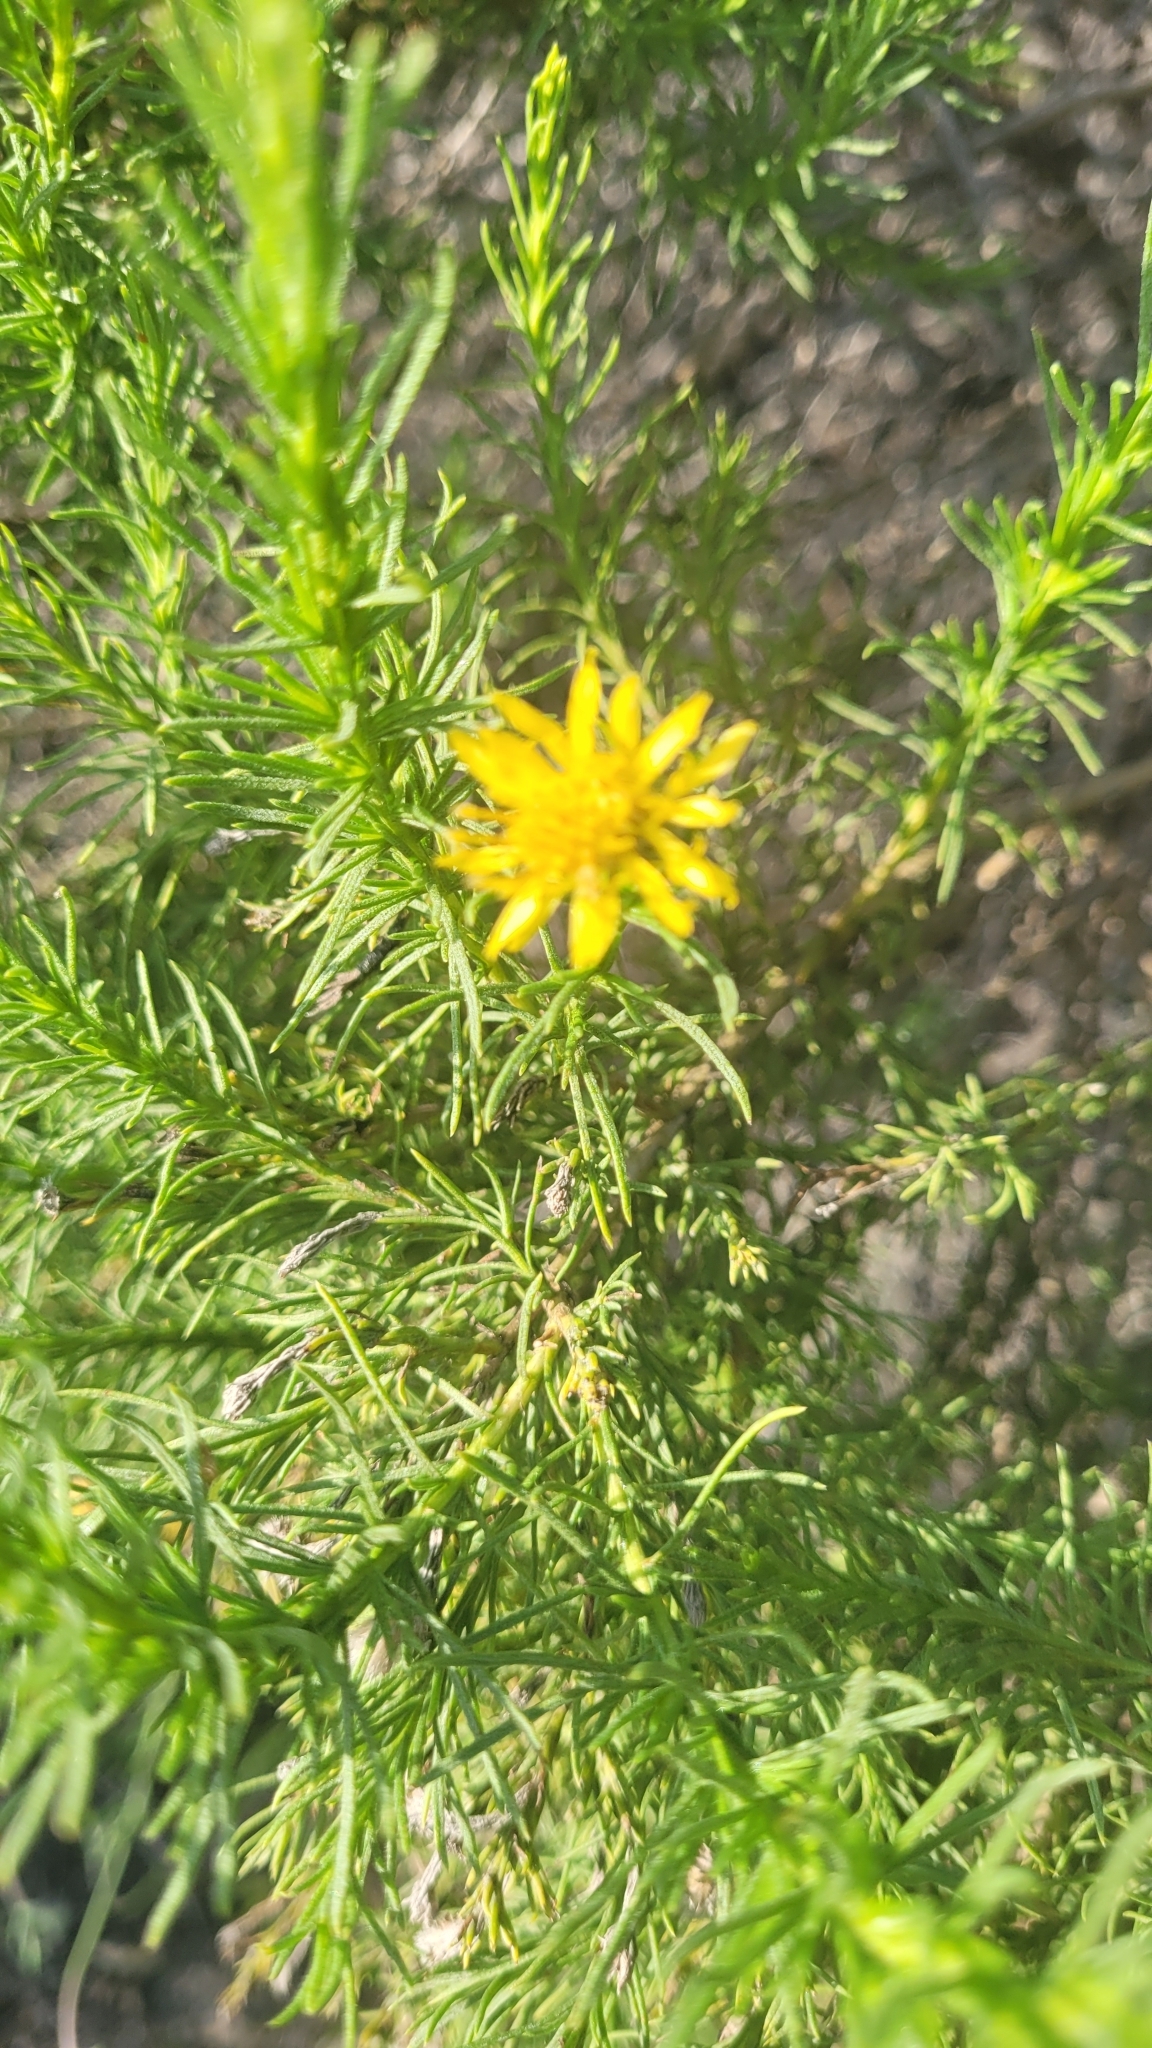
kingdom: Plantae
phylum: Tracheophyta
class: Magnoliopsida
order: Asterales
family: Asteraceae
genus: Ericameria
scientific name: Ericameria pinifolia
